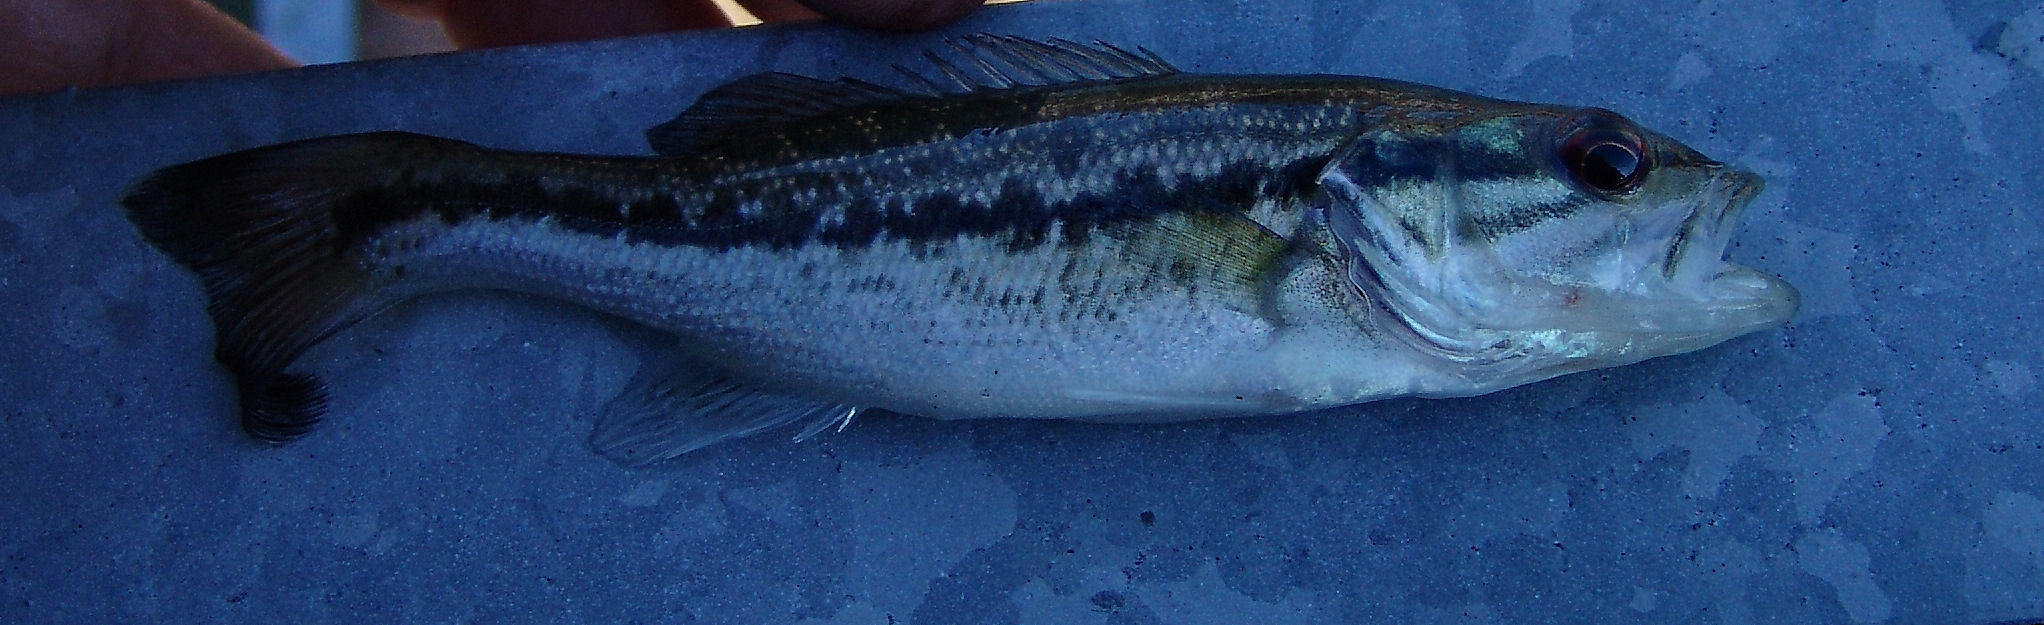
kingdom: Animalia
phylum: Chordata
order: Perciformes
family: Centrarchidae
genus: Micropterus
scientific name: Micropterus punctulatus
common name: Spotted bass
